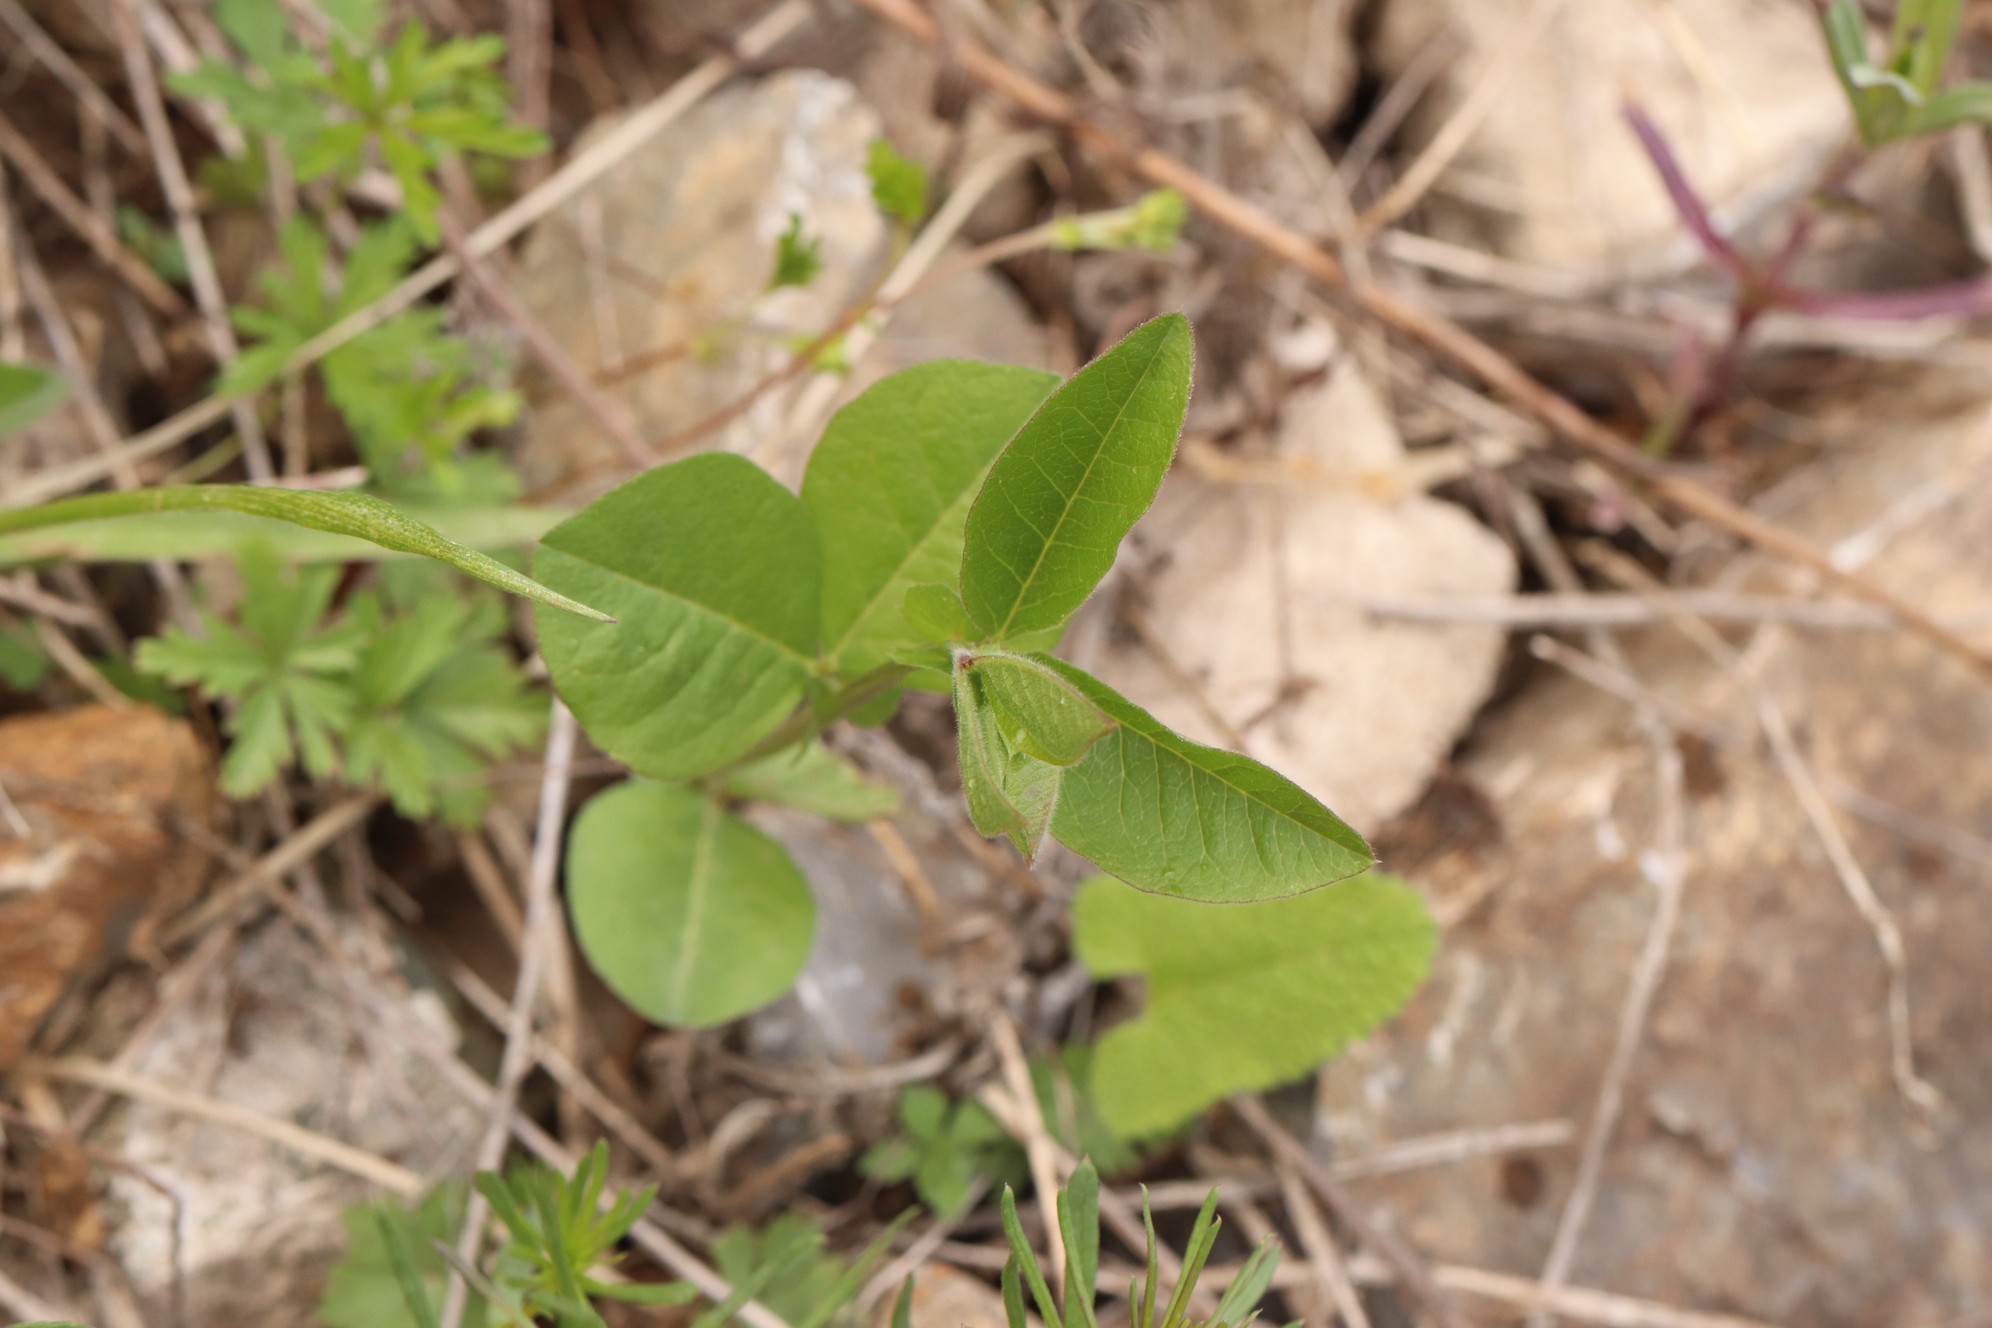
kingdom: Plantae
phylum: Tracheophyta
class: Magnoliopsida
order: Fabales
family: Fabaceae
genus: Vicia
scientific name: Vicia unijuga
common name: Two-leaf vetch
